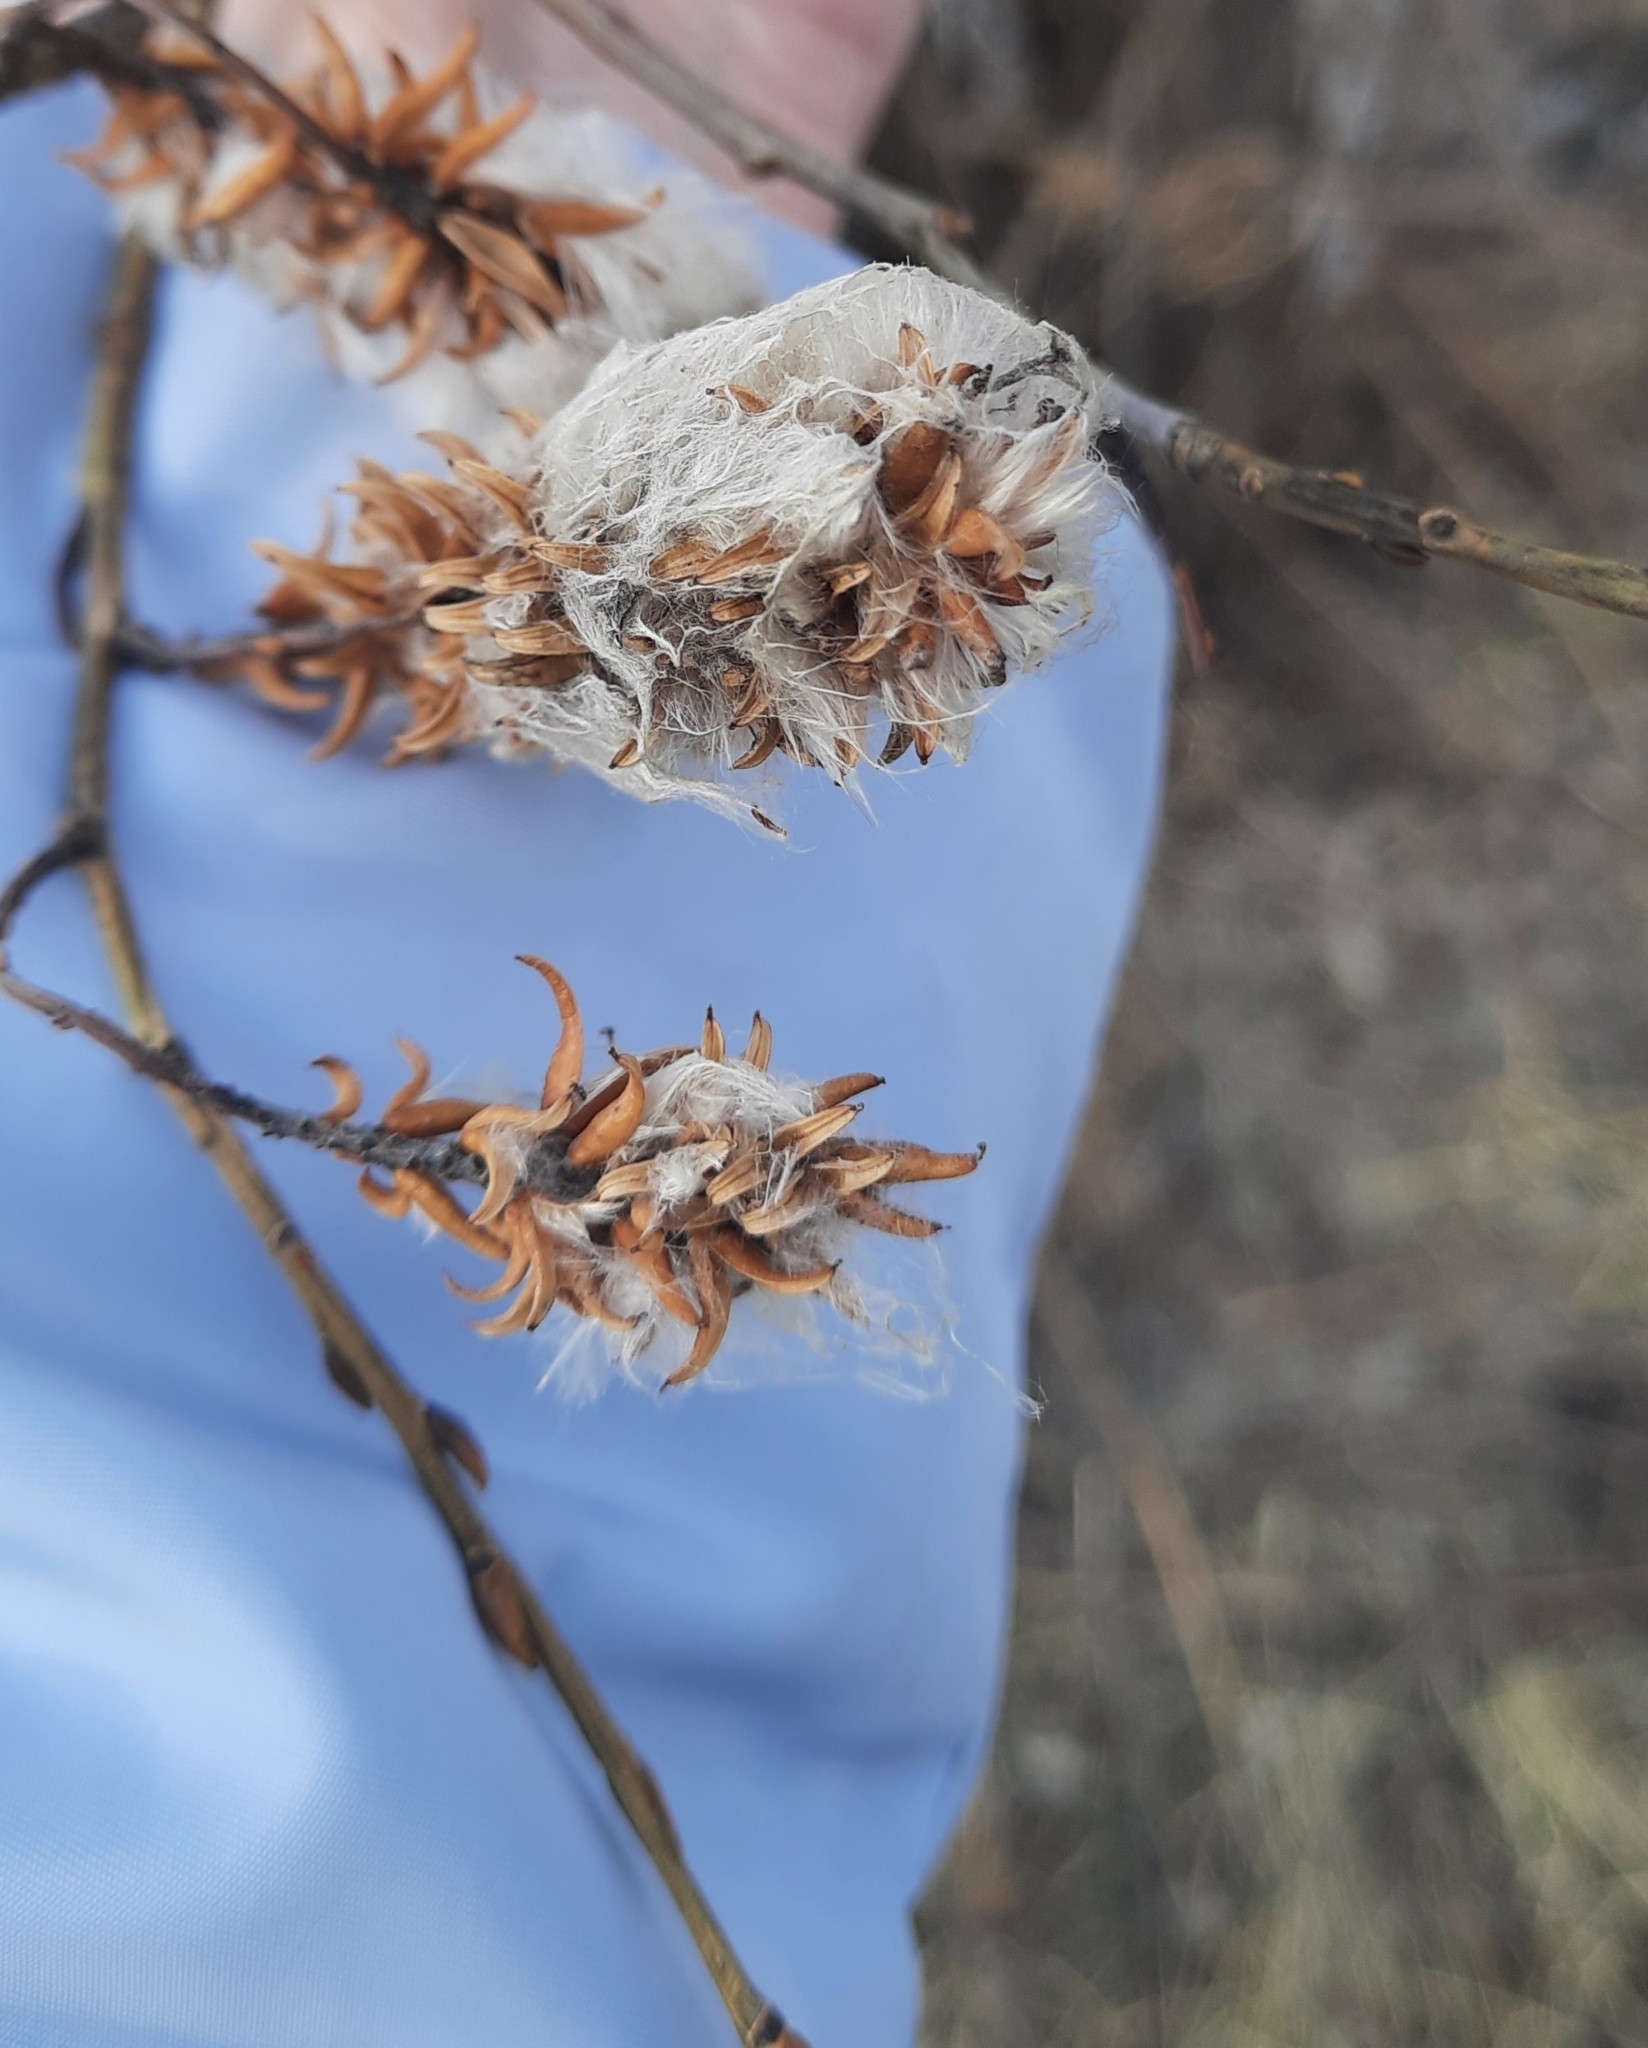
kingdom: Plantae
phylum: Tracheophyta
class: Magnoliopsida
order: Malpighiales
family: Salicaceae
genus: Salix
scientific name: Salix pentandra
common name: Bay willow
